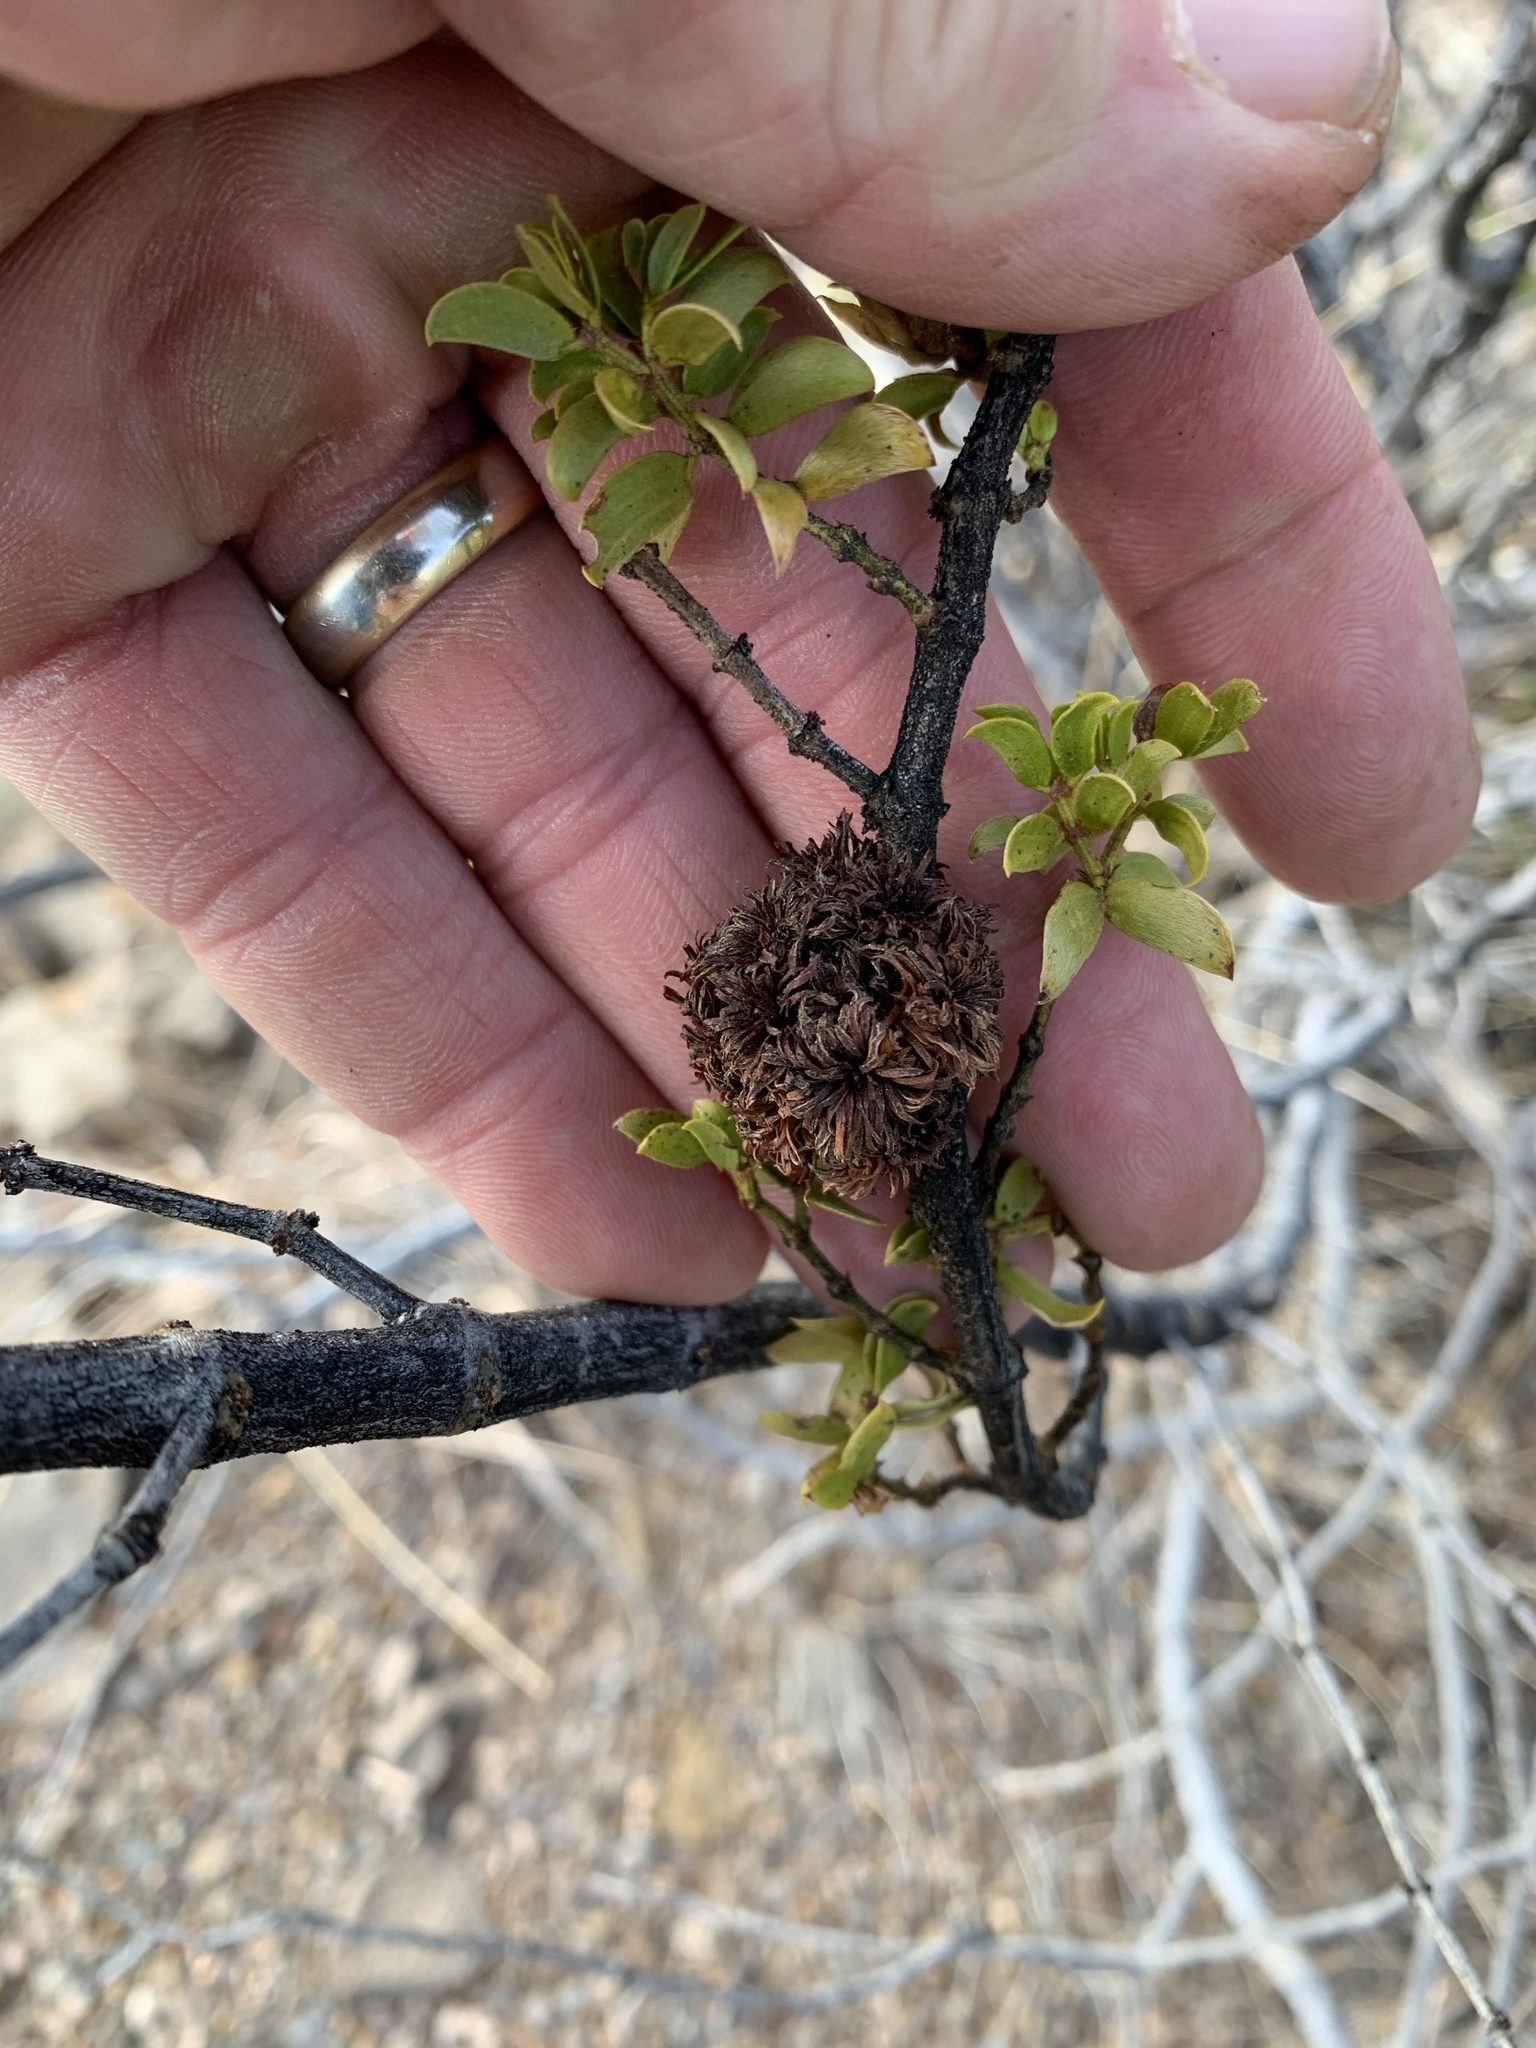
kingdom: Animalia
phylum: Arthropoda
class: Insecta
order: Diptera
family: Cecidomyiidae
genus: Asphondylia
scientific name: Asphondylia auripila
